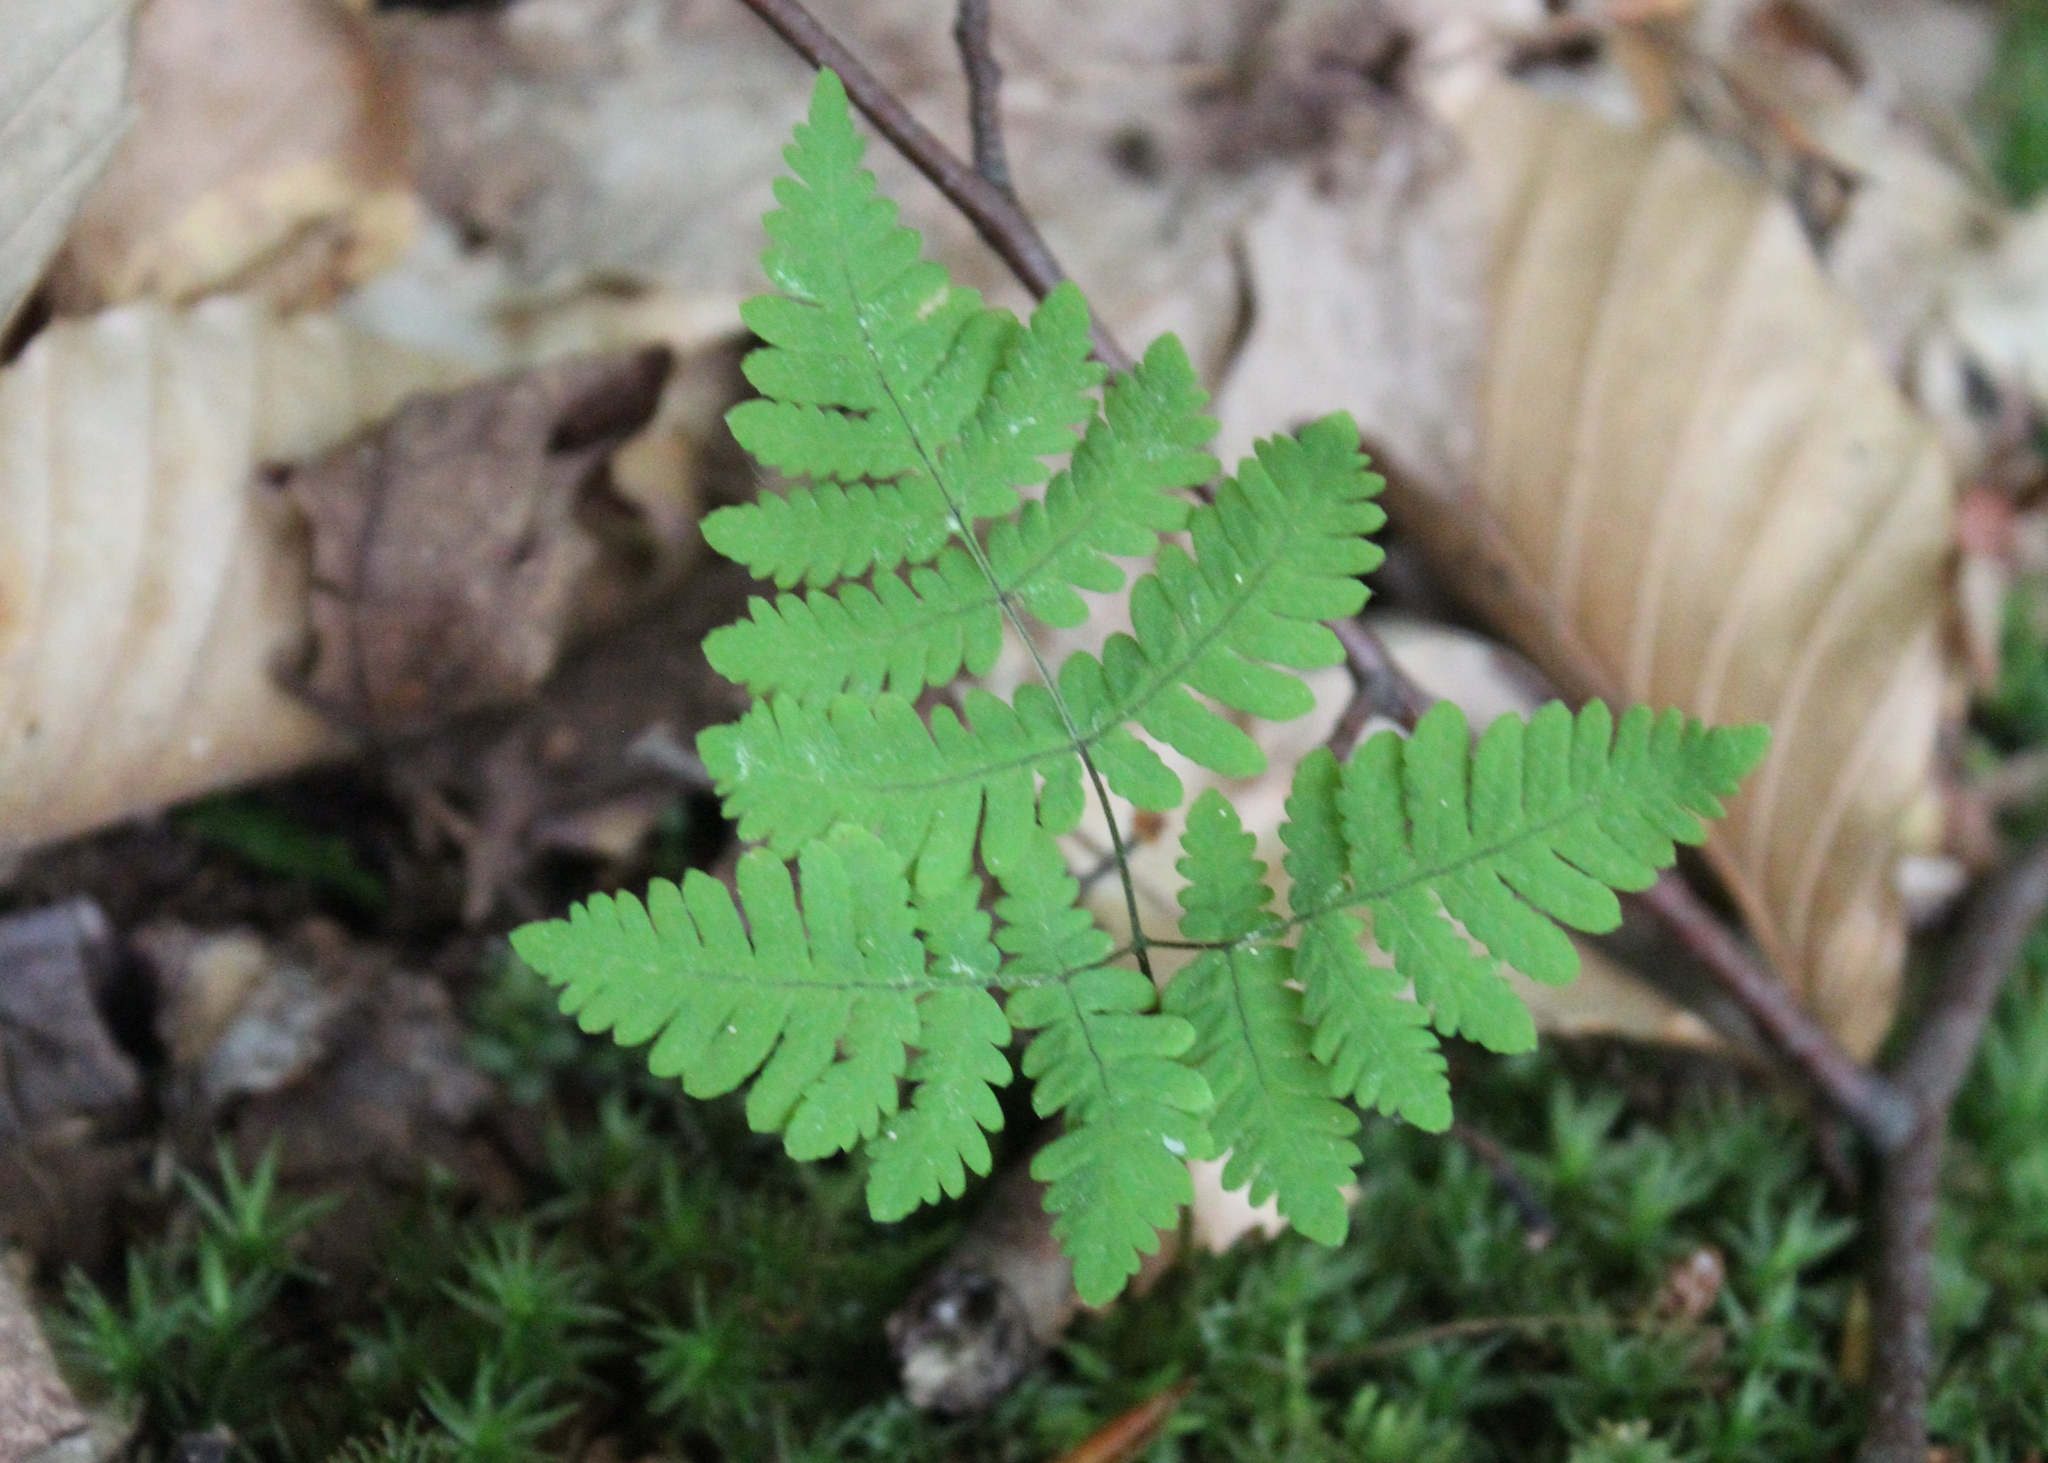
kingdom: Plantae
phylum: Tracheophyta
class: Polypodiopsida
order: Polypodiales
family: Cystopteridaceae
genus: Gymnocarpium
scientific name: Gymnocarpium dryopteris
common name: Oak fern
